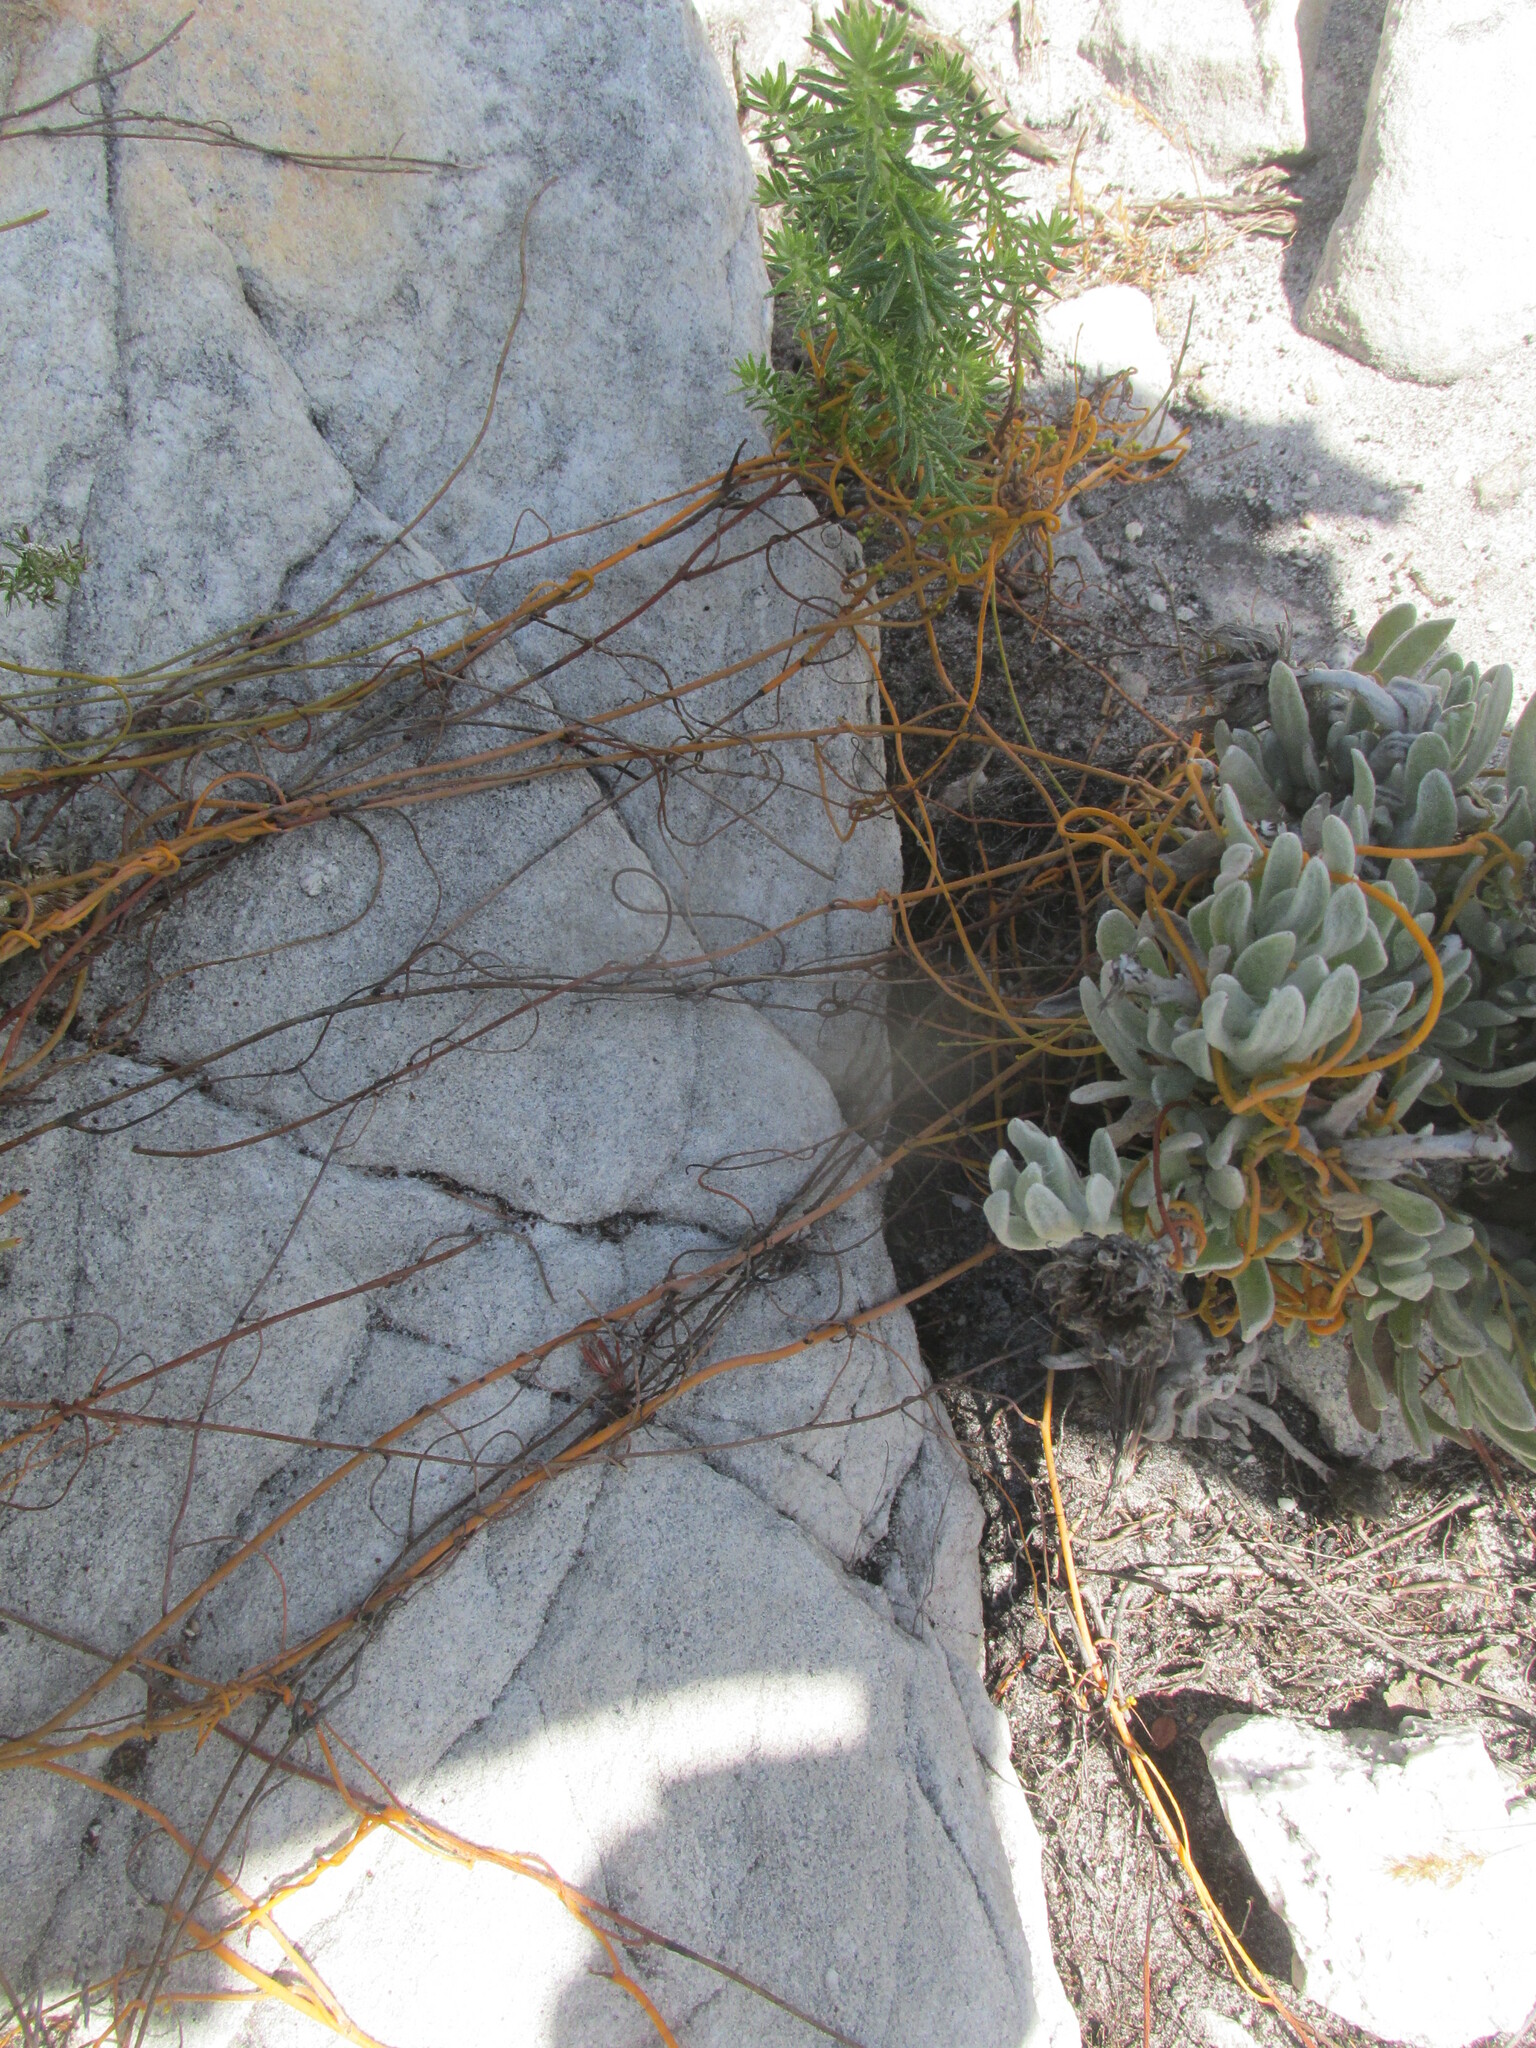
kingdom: Plantae
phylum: Tracheophyta
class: Magnoliopsida
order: Laurales
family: Lauraceae
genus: Cassytha
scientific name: Cassytha ciliolata
